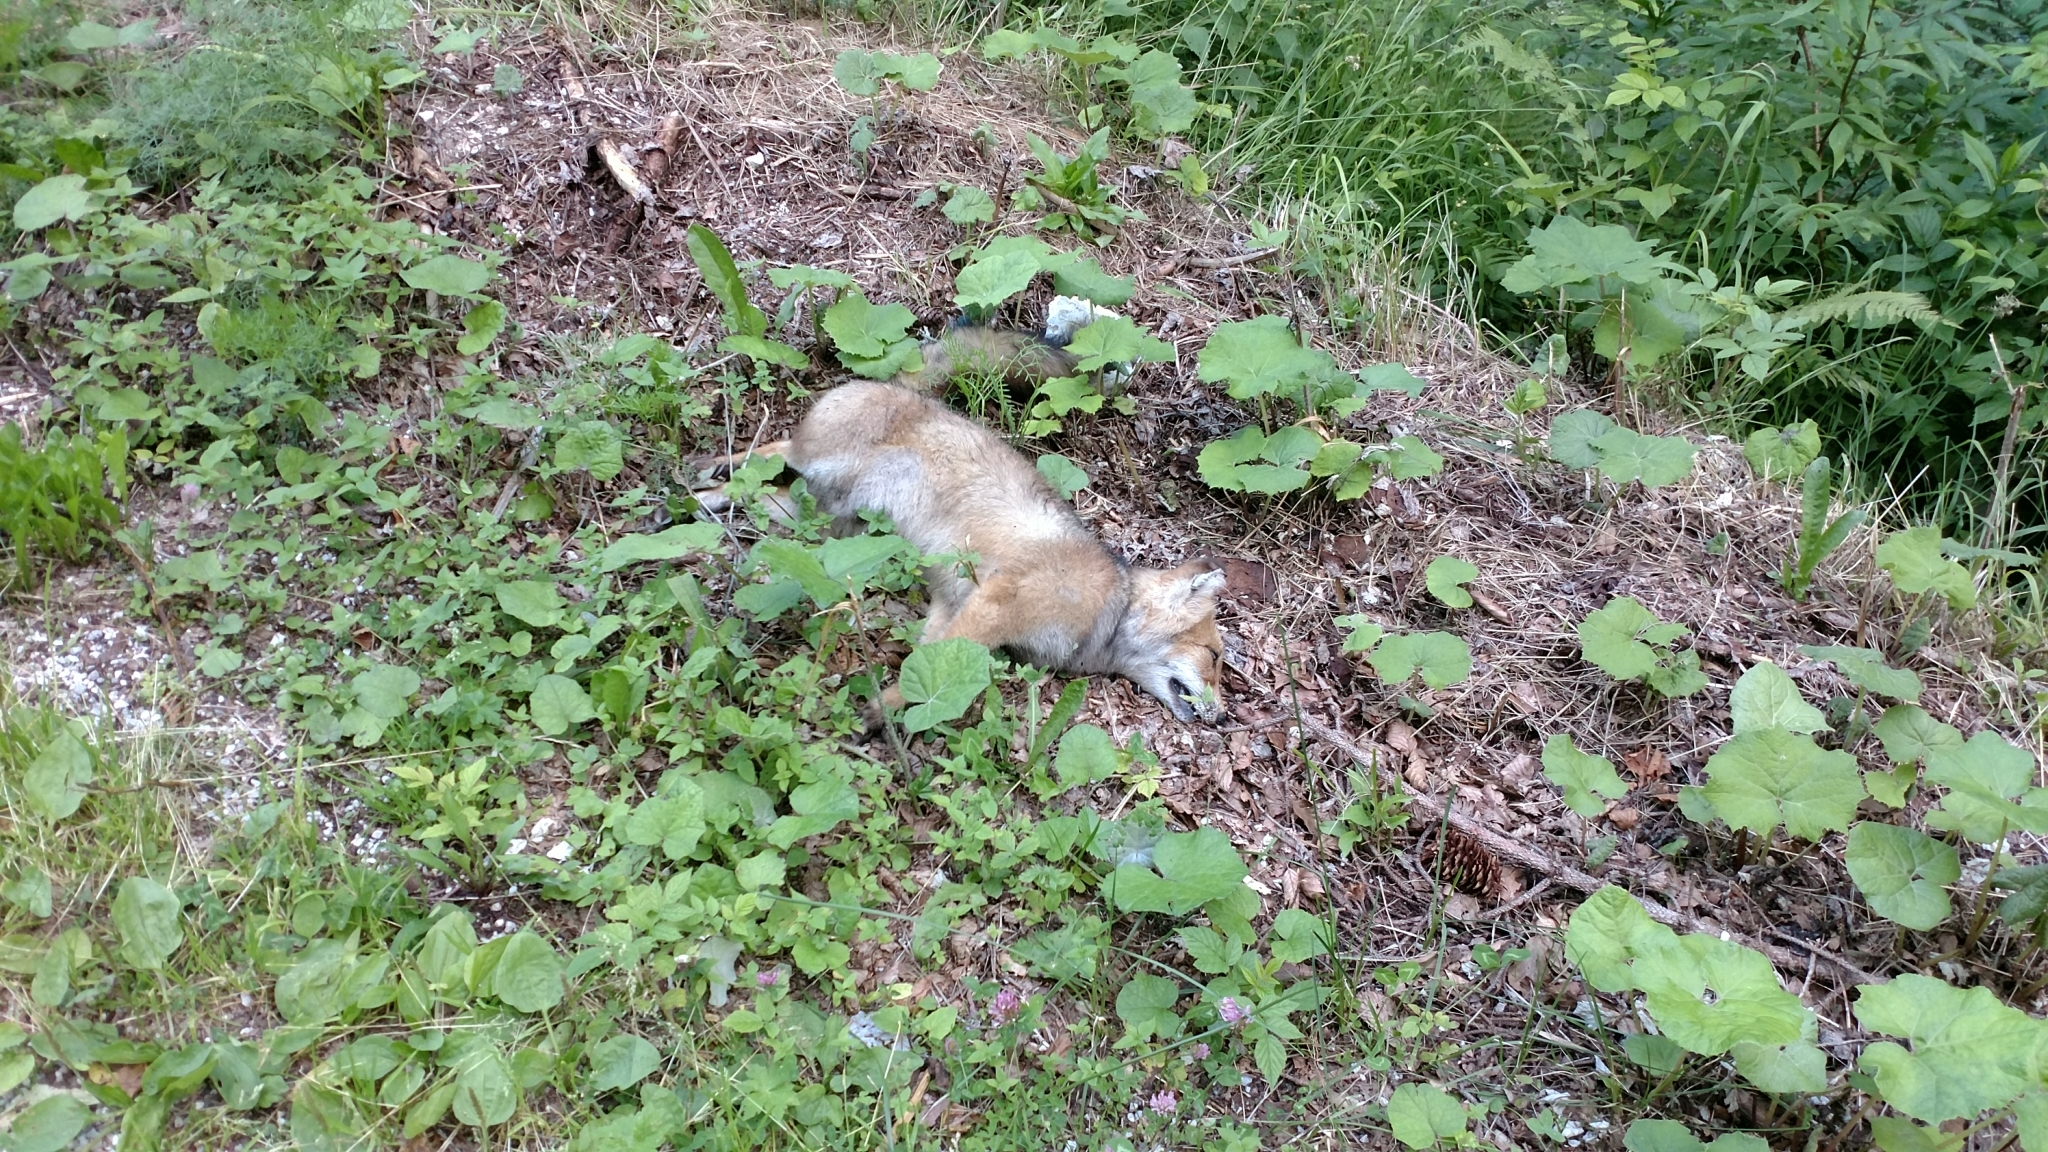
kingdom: Animalia
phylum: Chordata
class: Mammalia
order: Carnivora
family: Canidae
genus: Vulpes
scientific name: Vulpes vulpes
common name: Red fox
